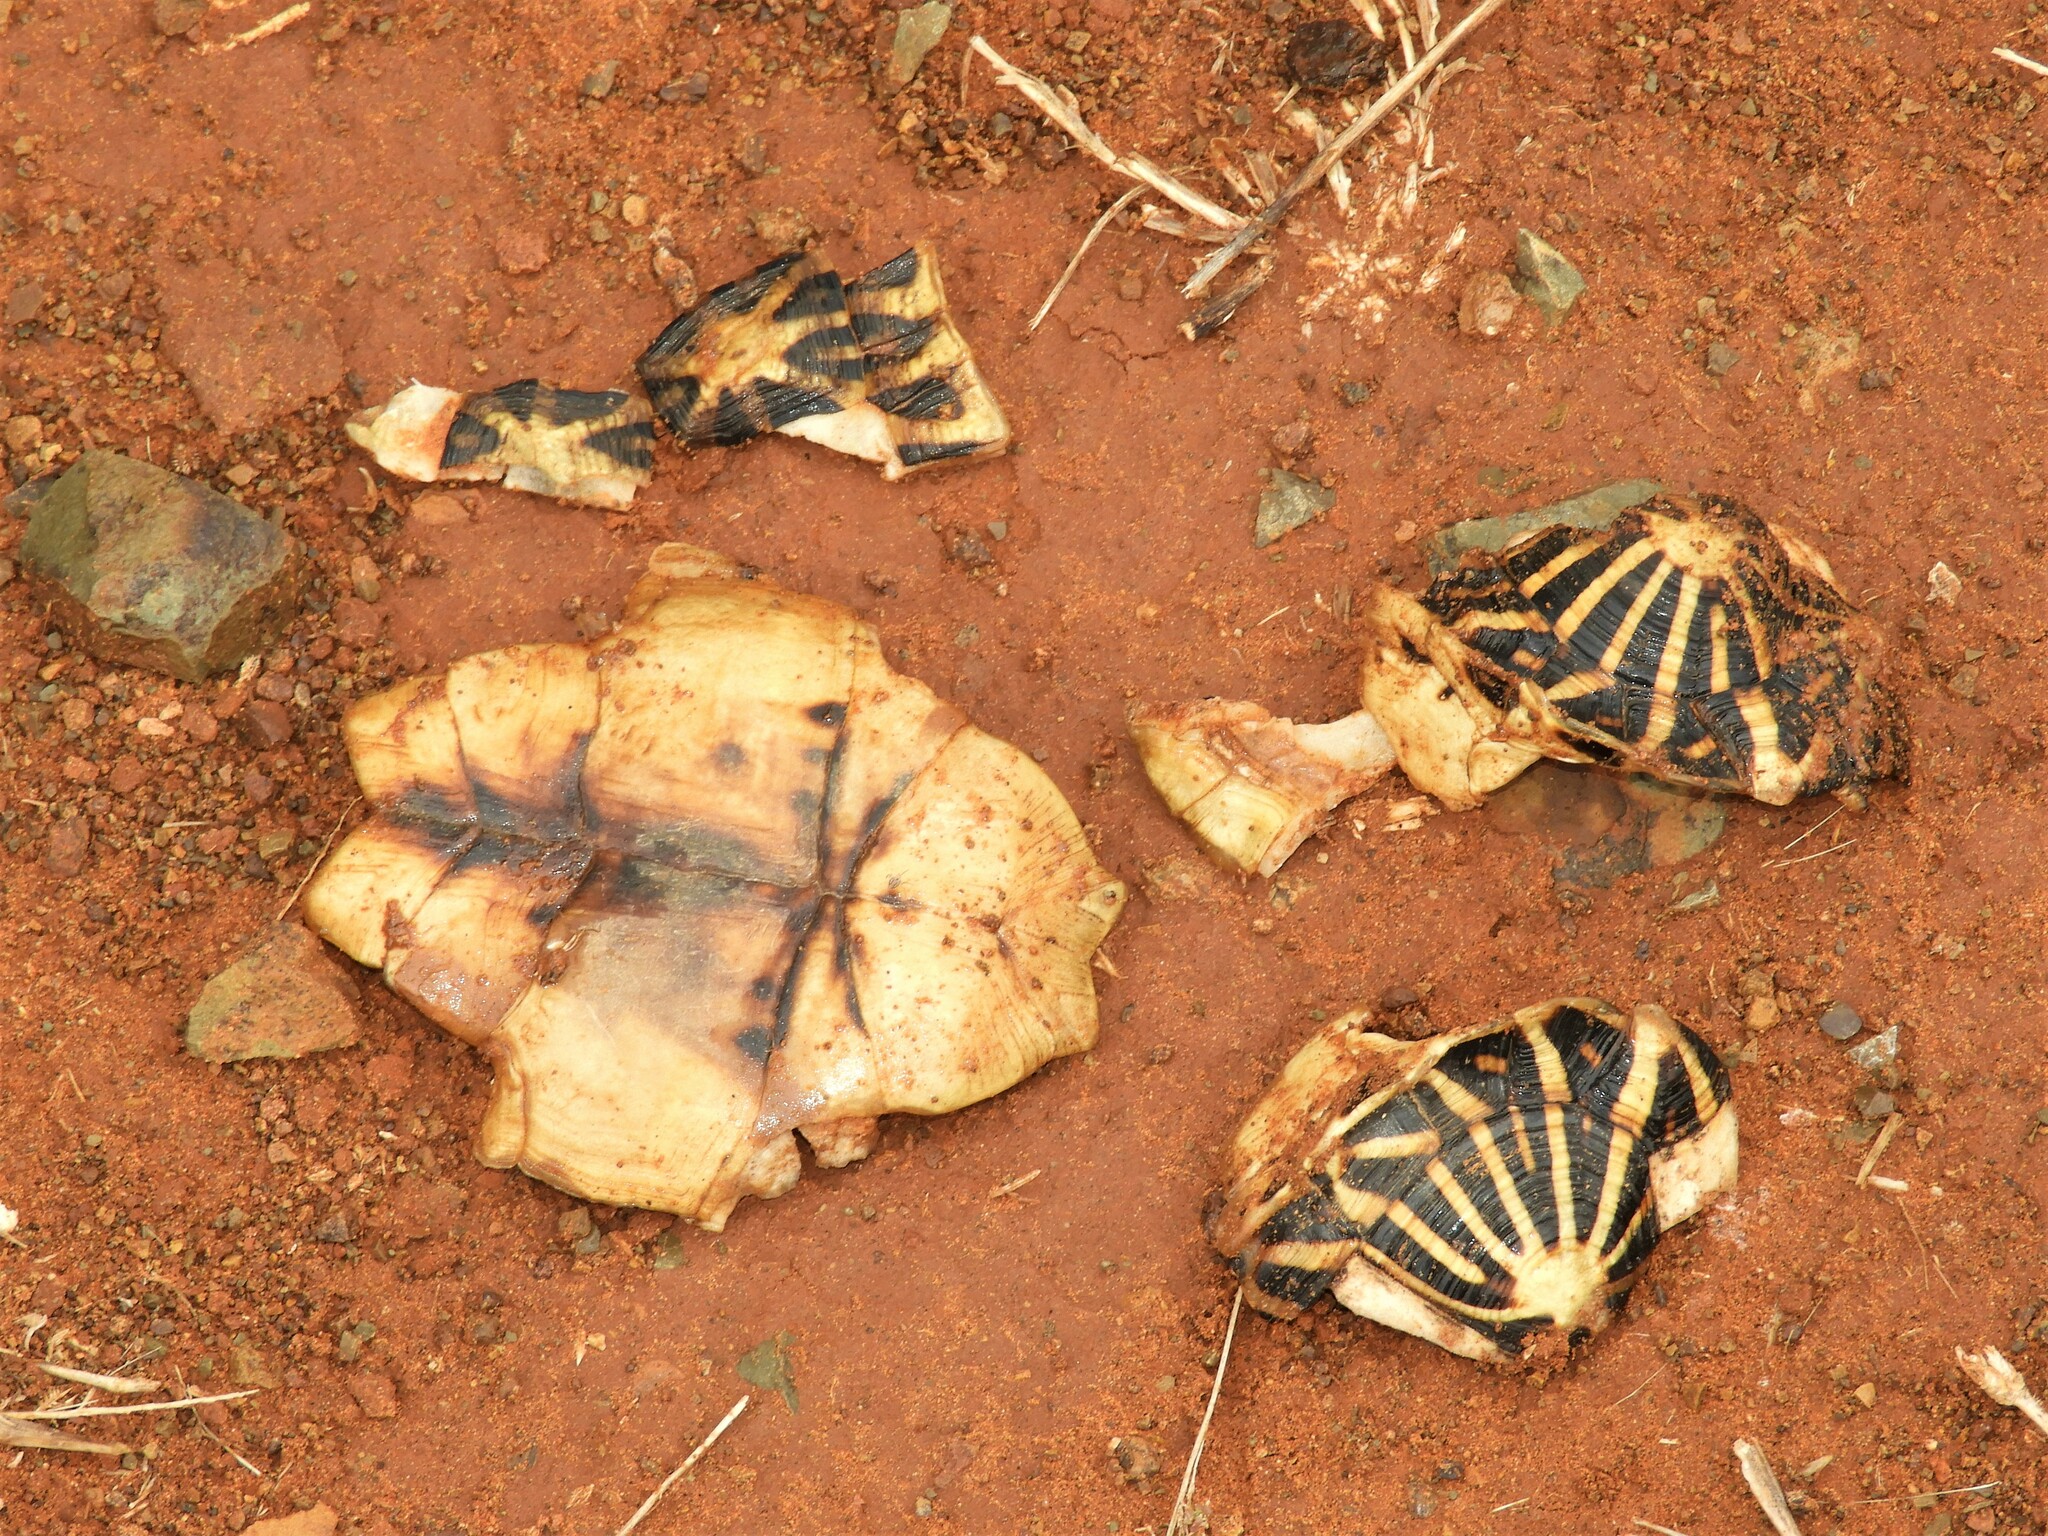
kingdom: Animalia
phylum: Chordata
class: Testudines
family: Testudinidae
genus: Psammobates
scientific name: Psammobates tentorius
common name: Tent tortoise
